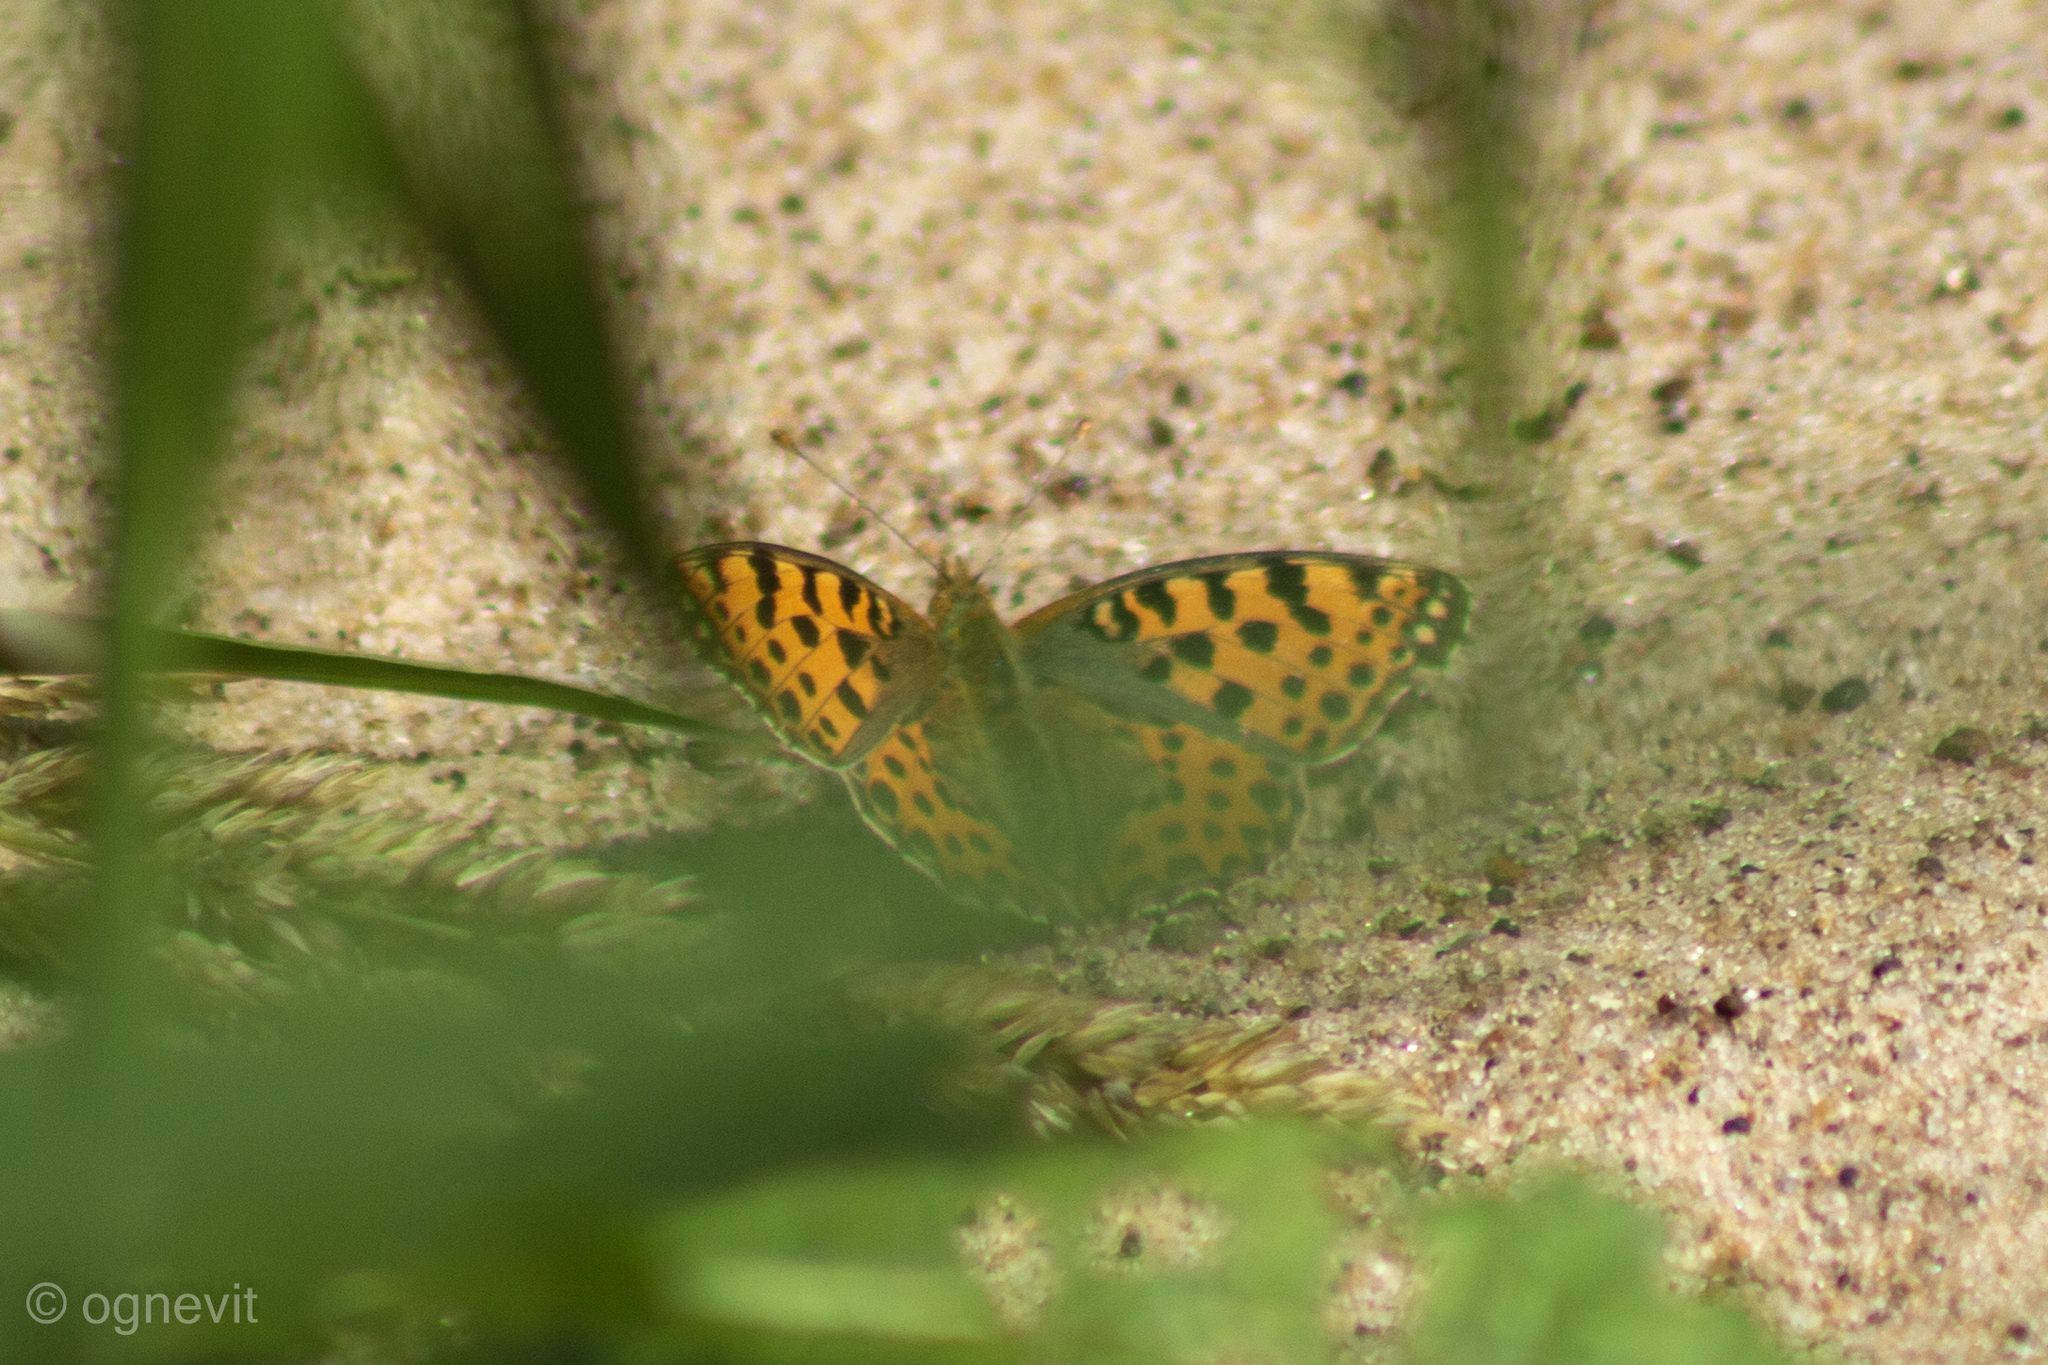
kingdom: Animalia
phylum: Arthropoda
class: Insecta
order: Lepidoptera
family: Nymphalidae
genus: Issoria
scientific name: Issoria lathonia
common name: Queen of spain fritillary
